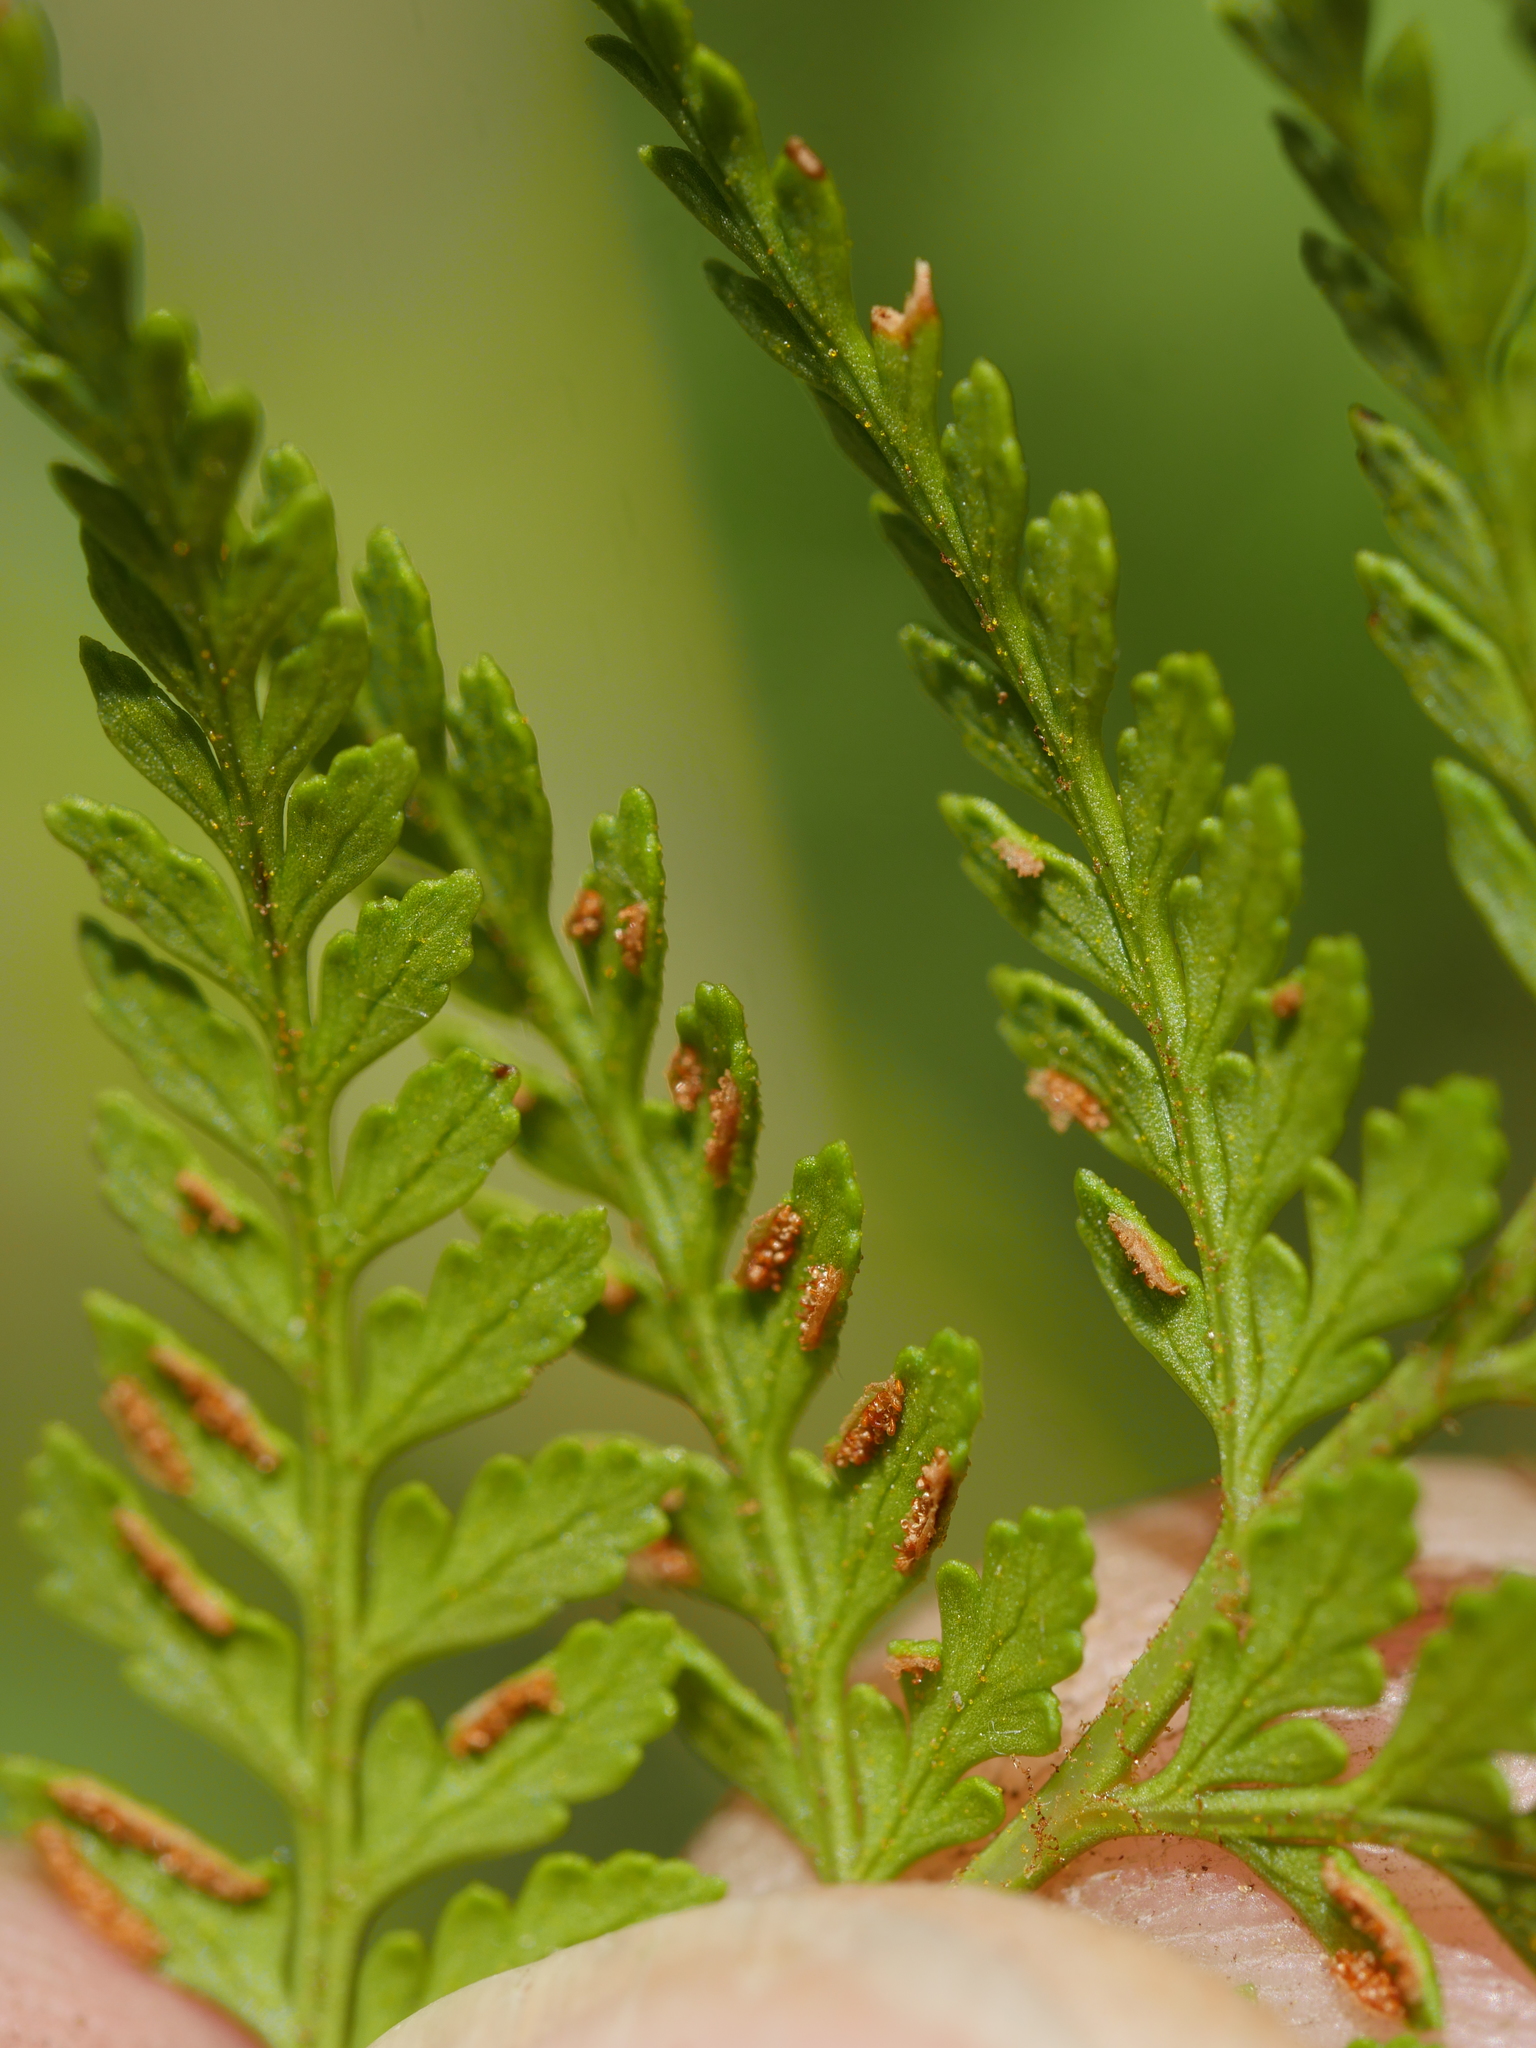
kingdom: Plantae
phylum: Tracheophyta
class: Polypodiopsida
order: Polypodiales
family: Dennstaedtiaceae
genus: Paesia
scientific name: Paesia scaberula
